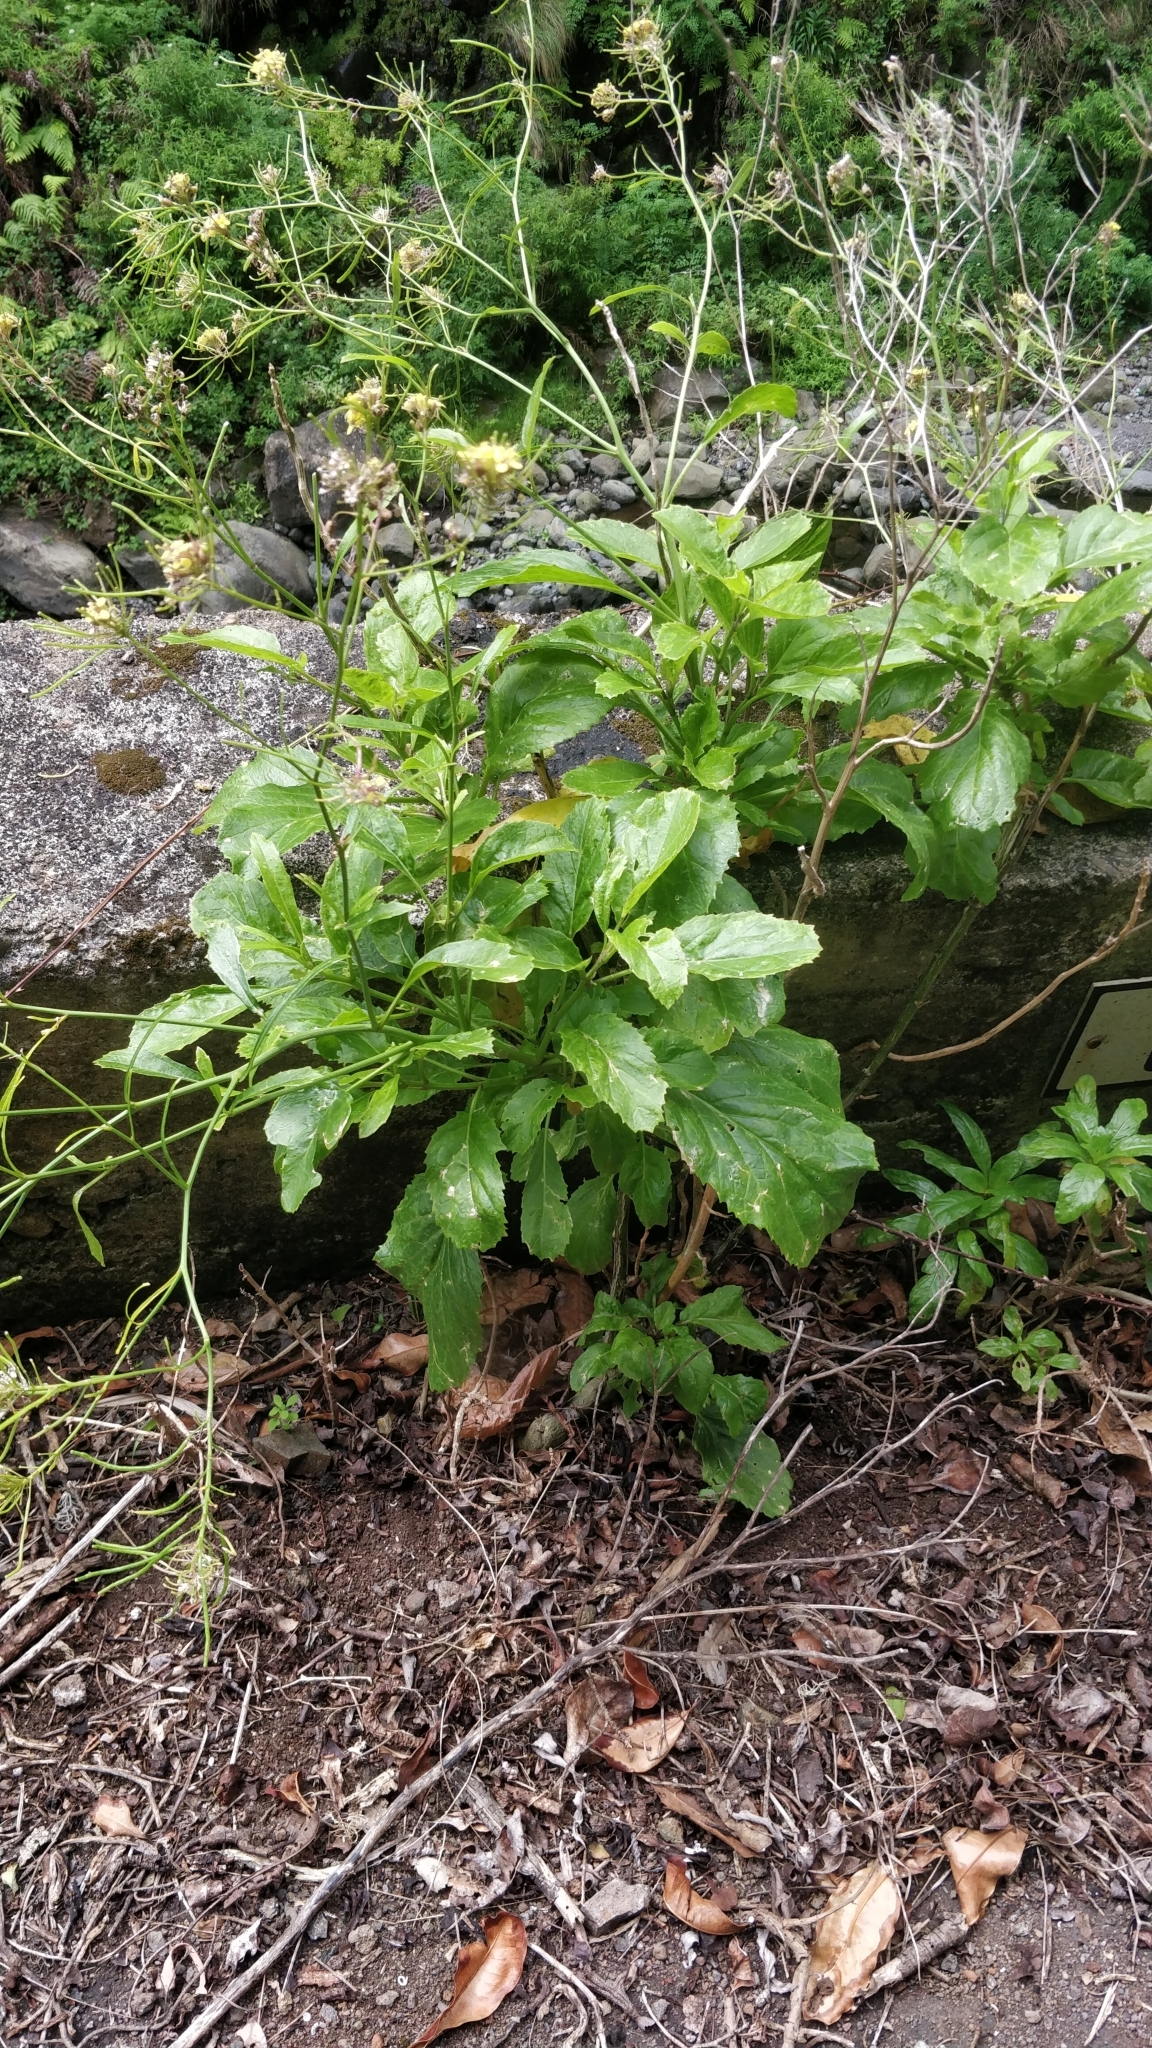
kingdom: Plantae
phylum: Tracheophyta
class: Magnoliopsida
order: Brassicales
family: Brassicaceae
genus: Sinapidendron
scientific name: Sinapidendron rupestre
